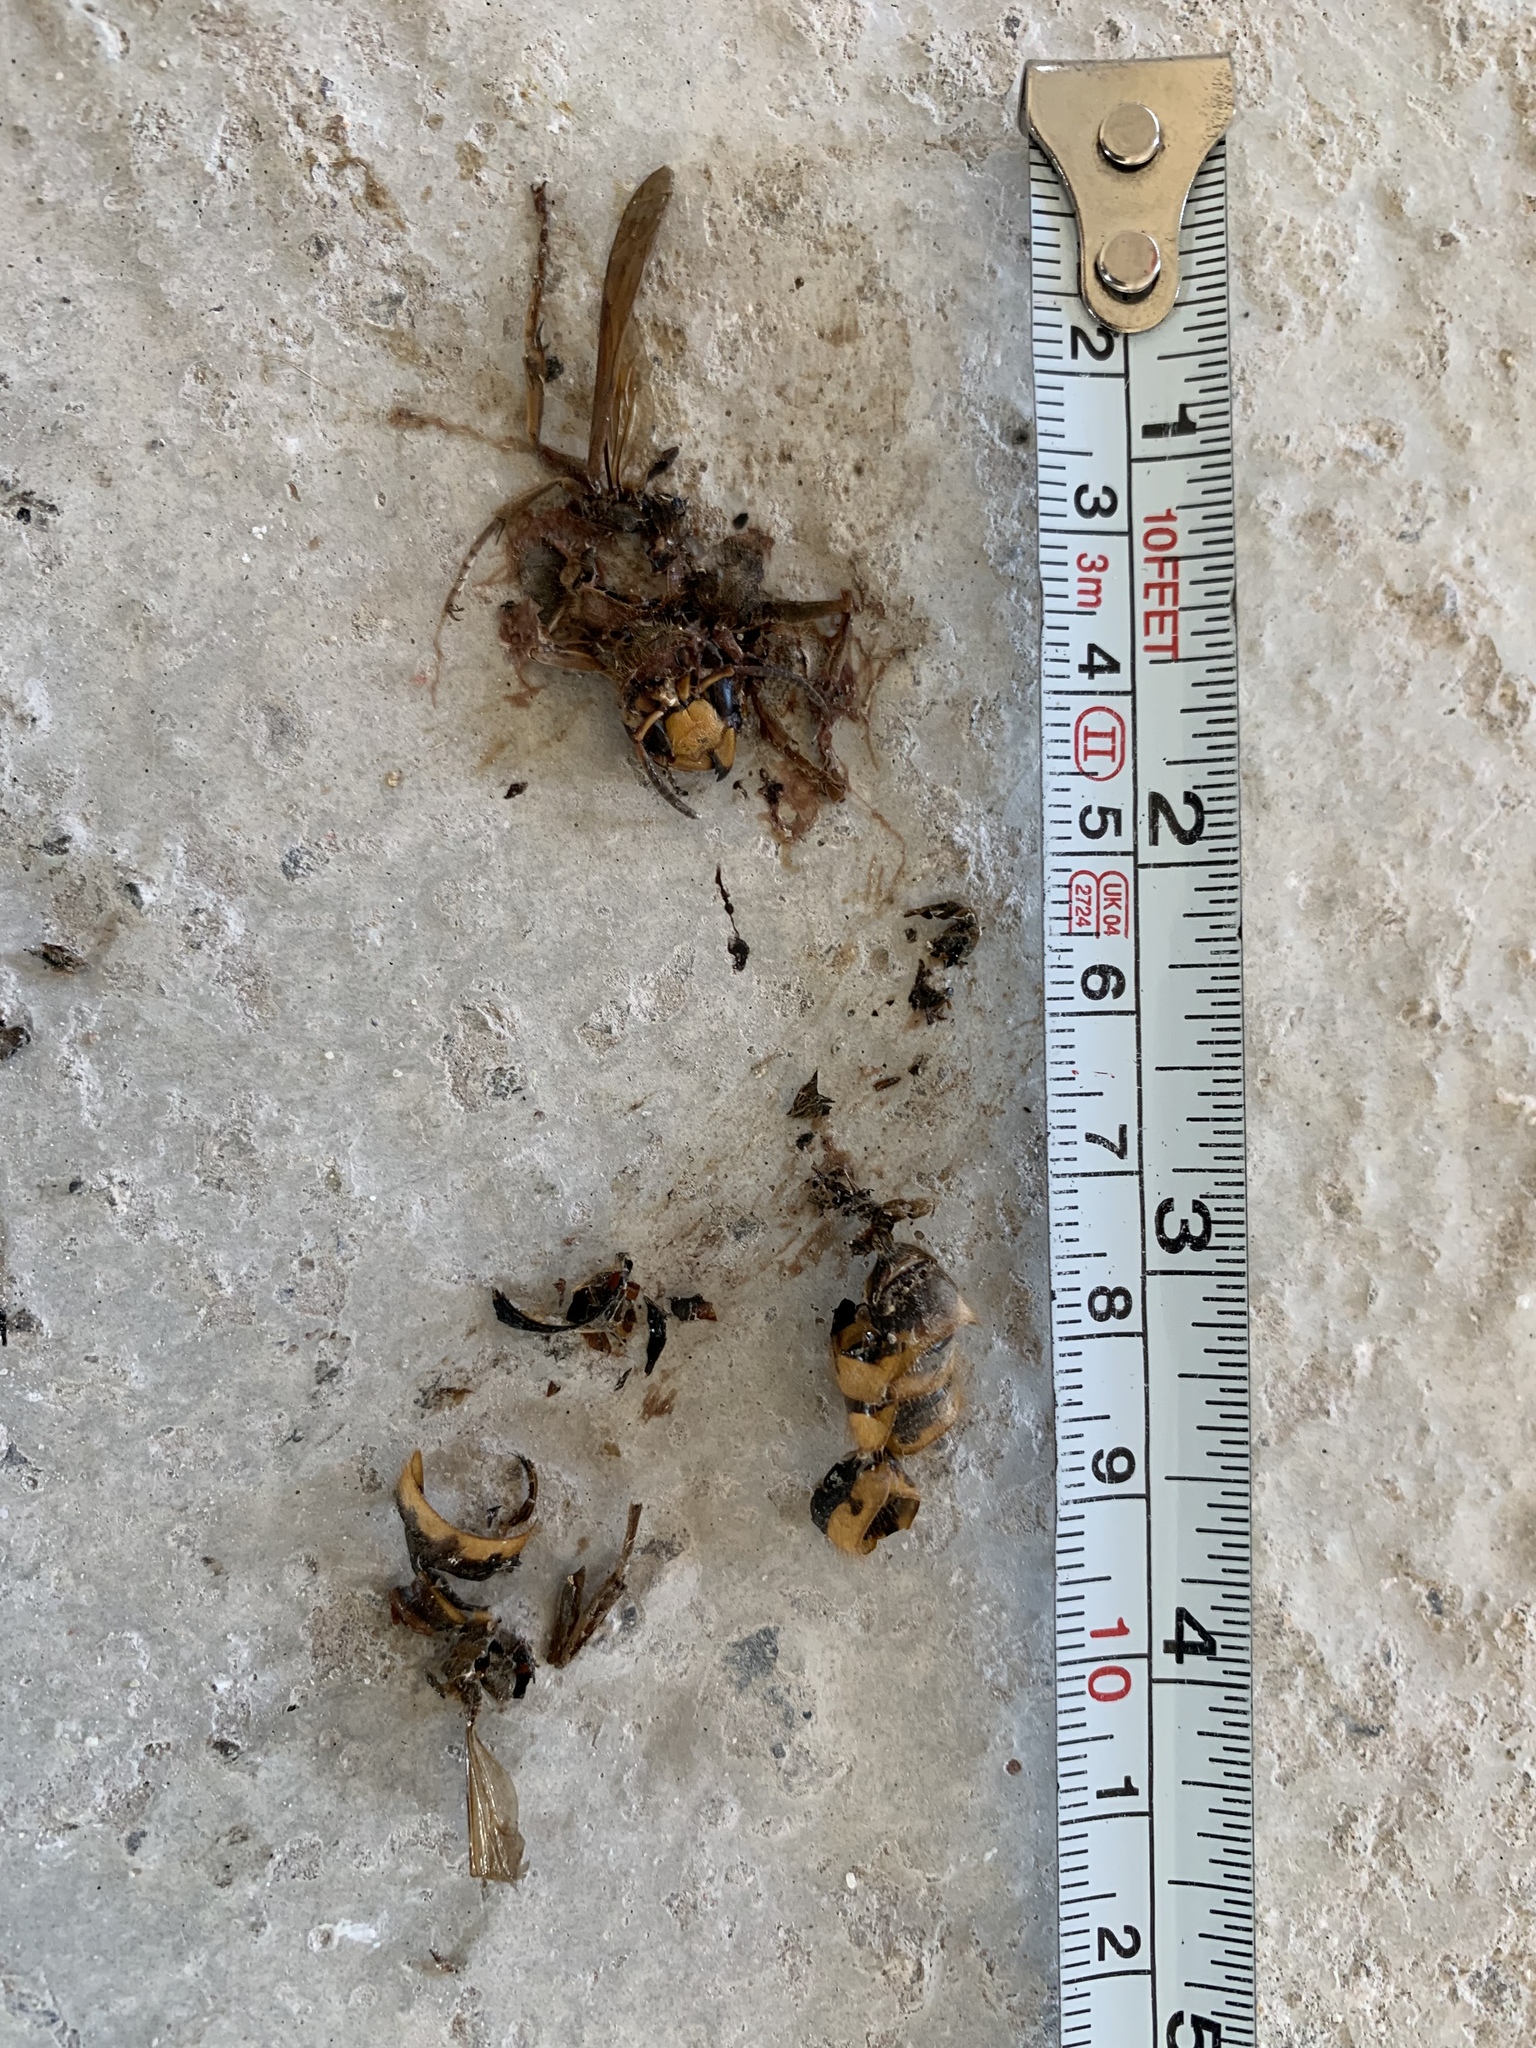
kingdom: Animalia
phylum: Arthropoda
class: Insecta
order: Hymenoptera
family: Vespidae
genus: Vespa
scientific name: Vespa crabro
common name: Hornet
